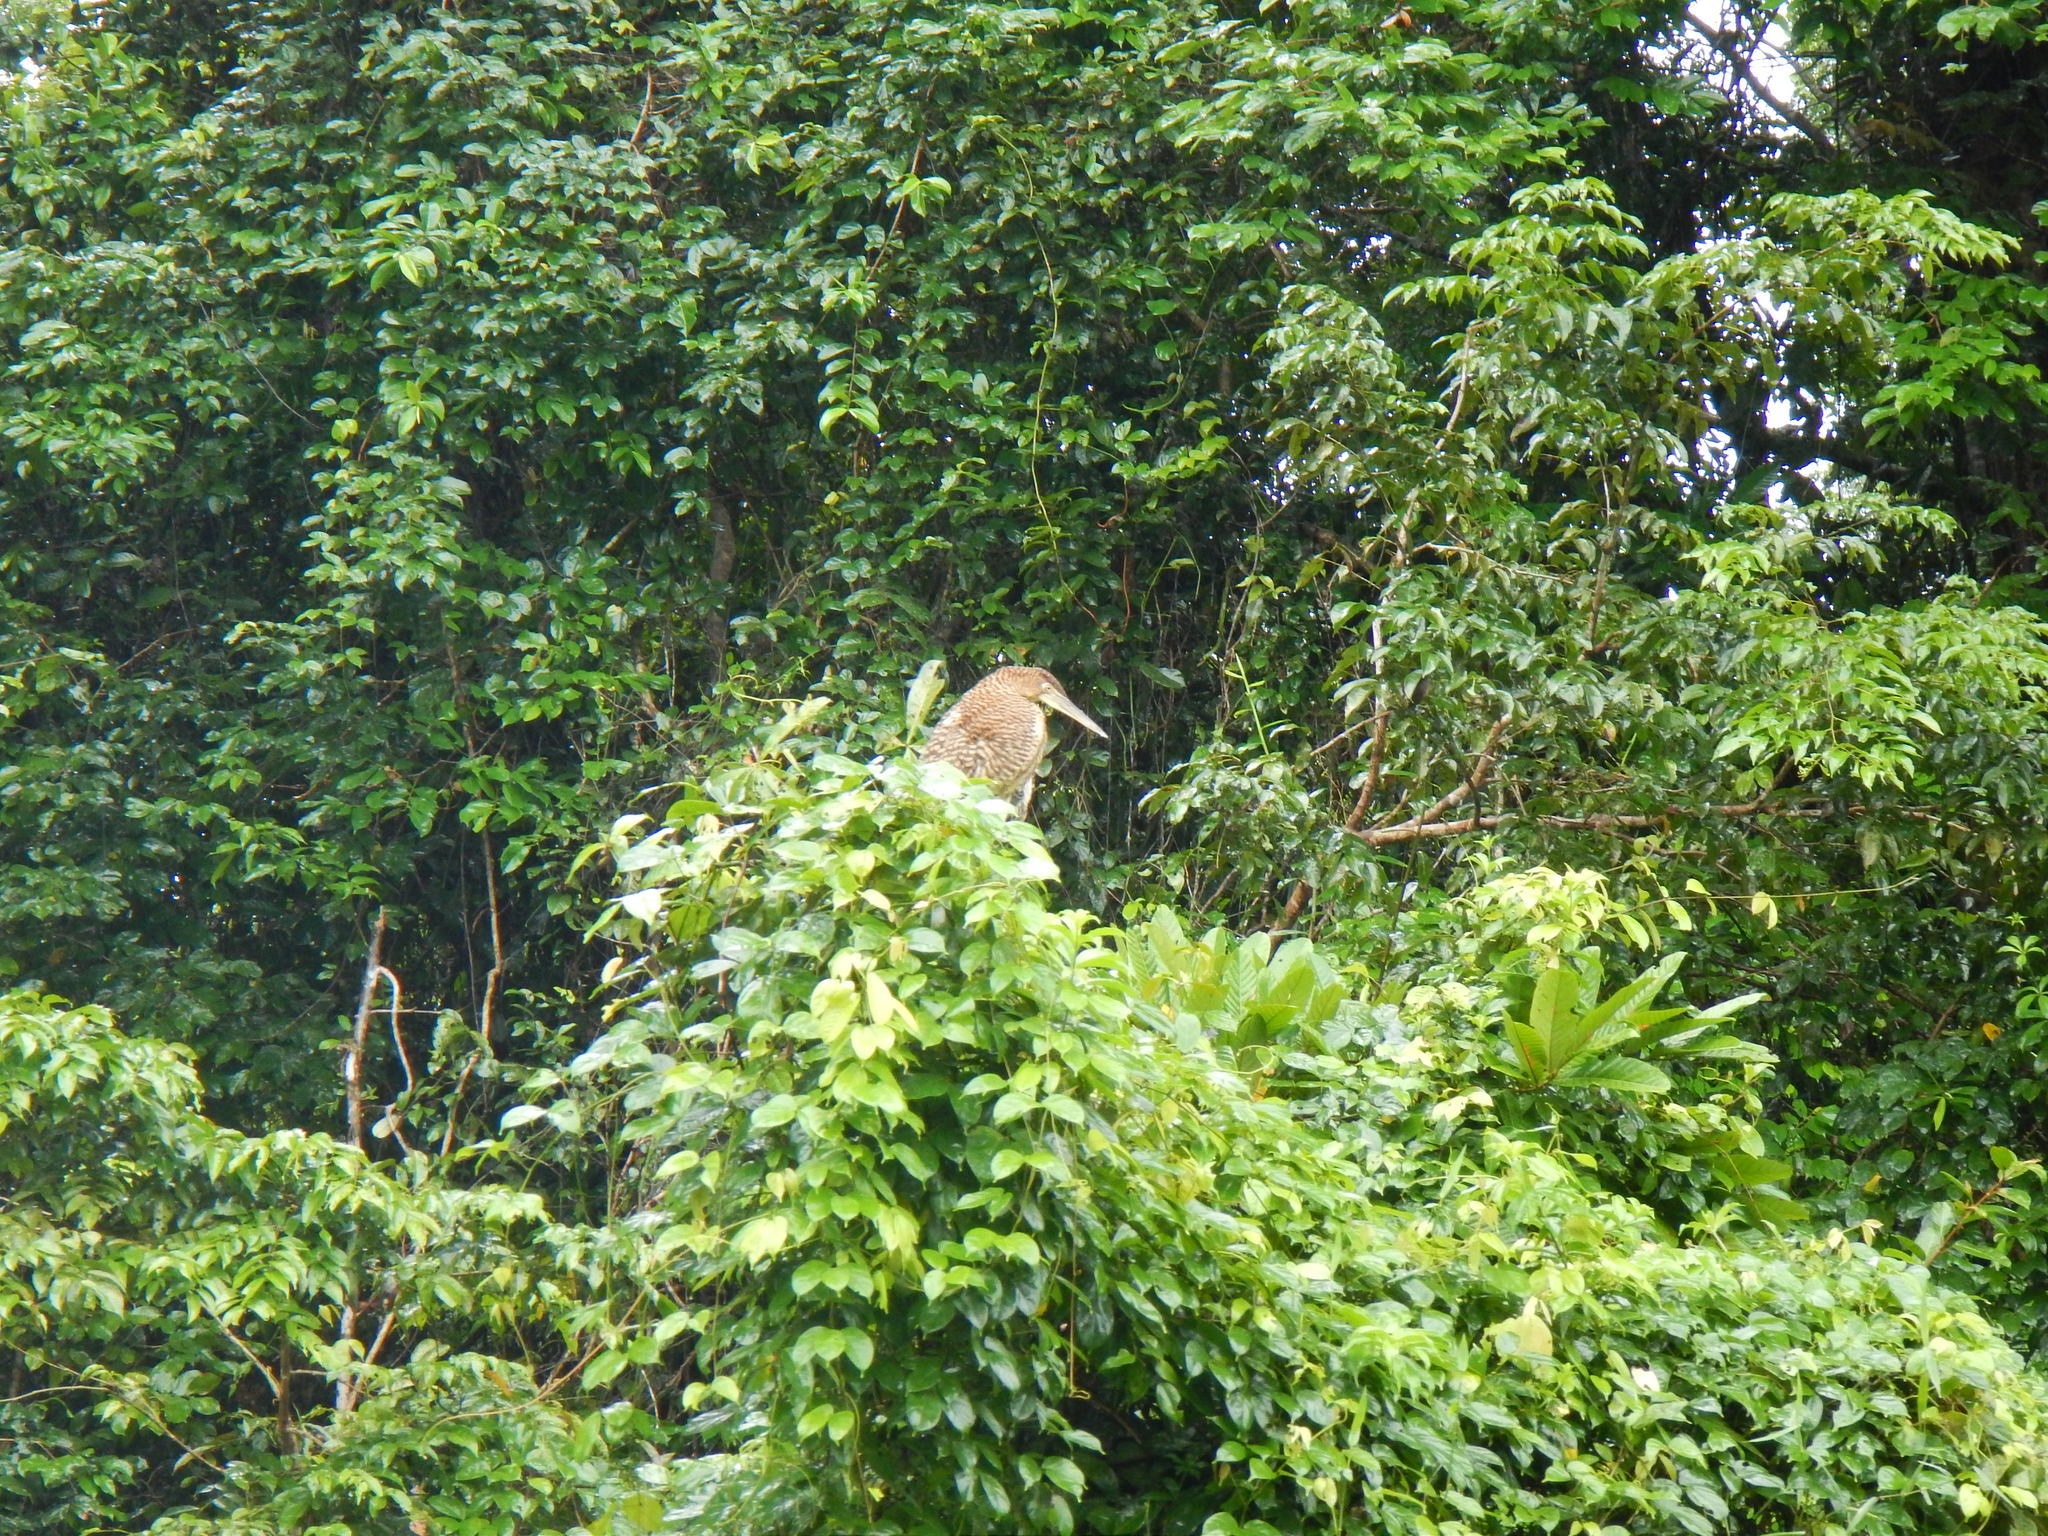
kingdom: Animalia
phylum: Chordata
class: Aves
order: Pelecaniformes
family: Ardeidae
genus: Tigrisoma
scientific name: Tigrisoma mexicanum
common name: Bare-throated tiger-heron
